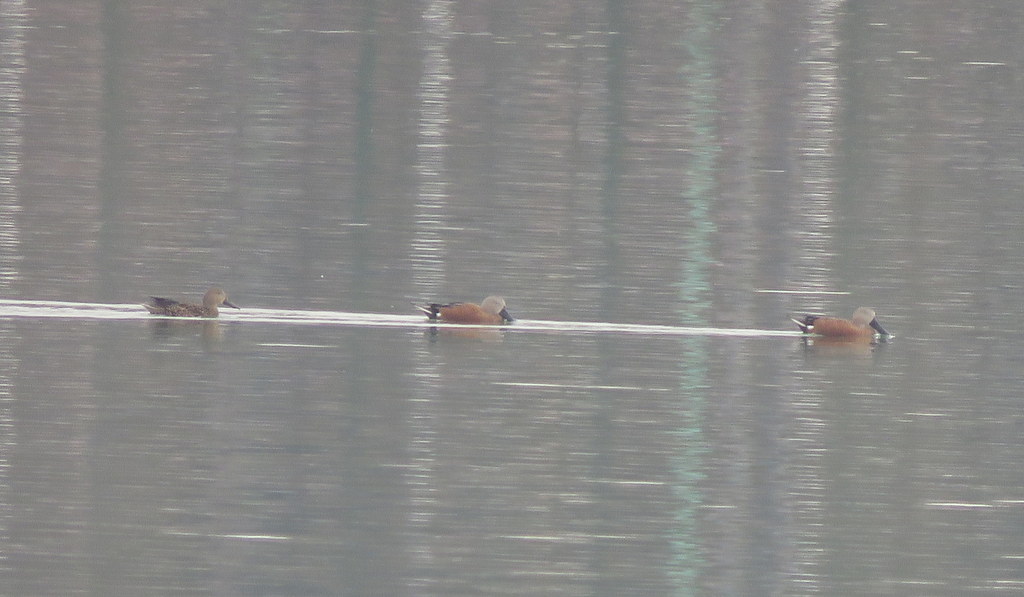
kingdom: Animalia
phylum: Chordata
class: Aves
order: Anseriformes
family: Anatidae
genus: Spatula
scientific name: Spatula platalea
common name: Red shoveler
